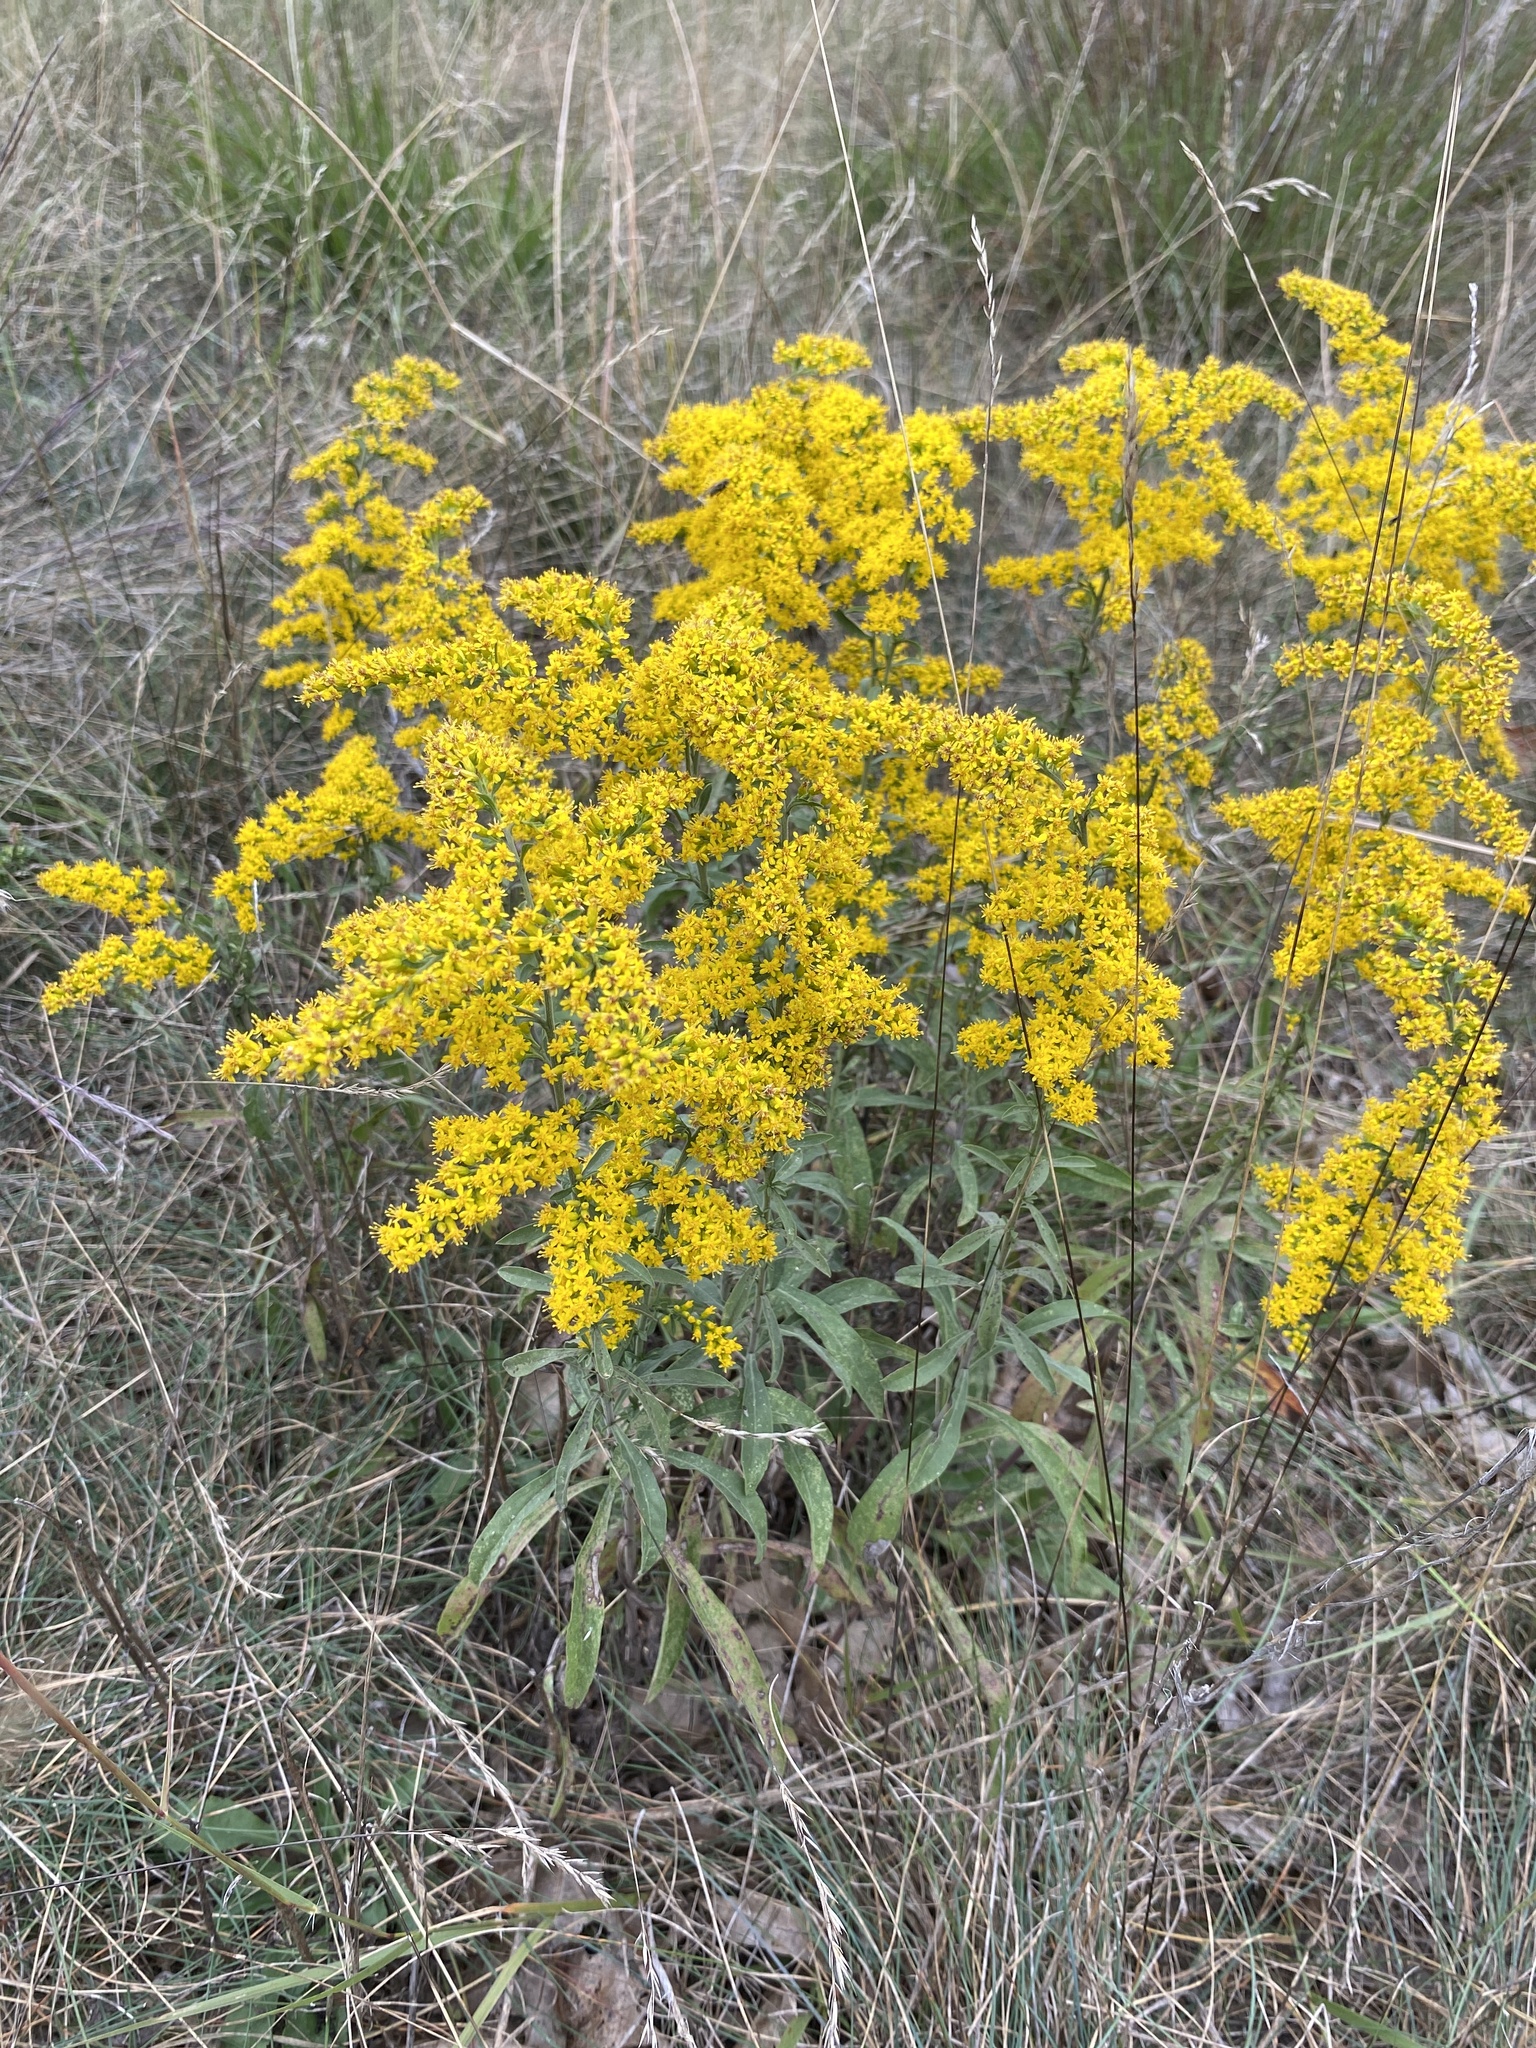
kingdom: Plantae
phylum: Tracheophyta
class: Magnoliopsida
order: Asterales
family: Asteraceae
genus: Solidago
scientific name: Solidago nemoralis
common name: Grey goldenrod
